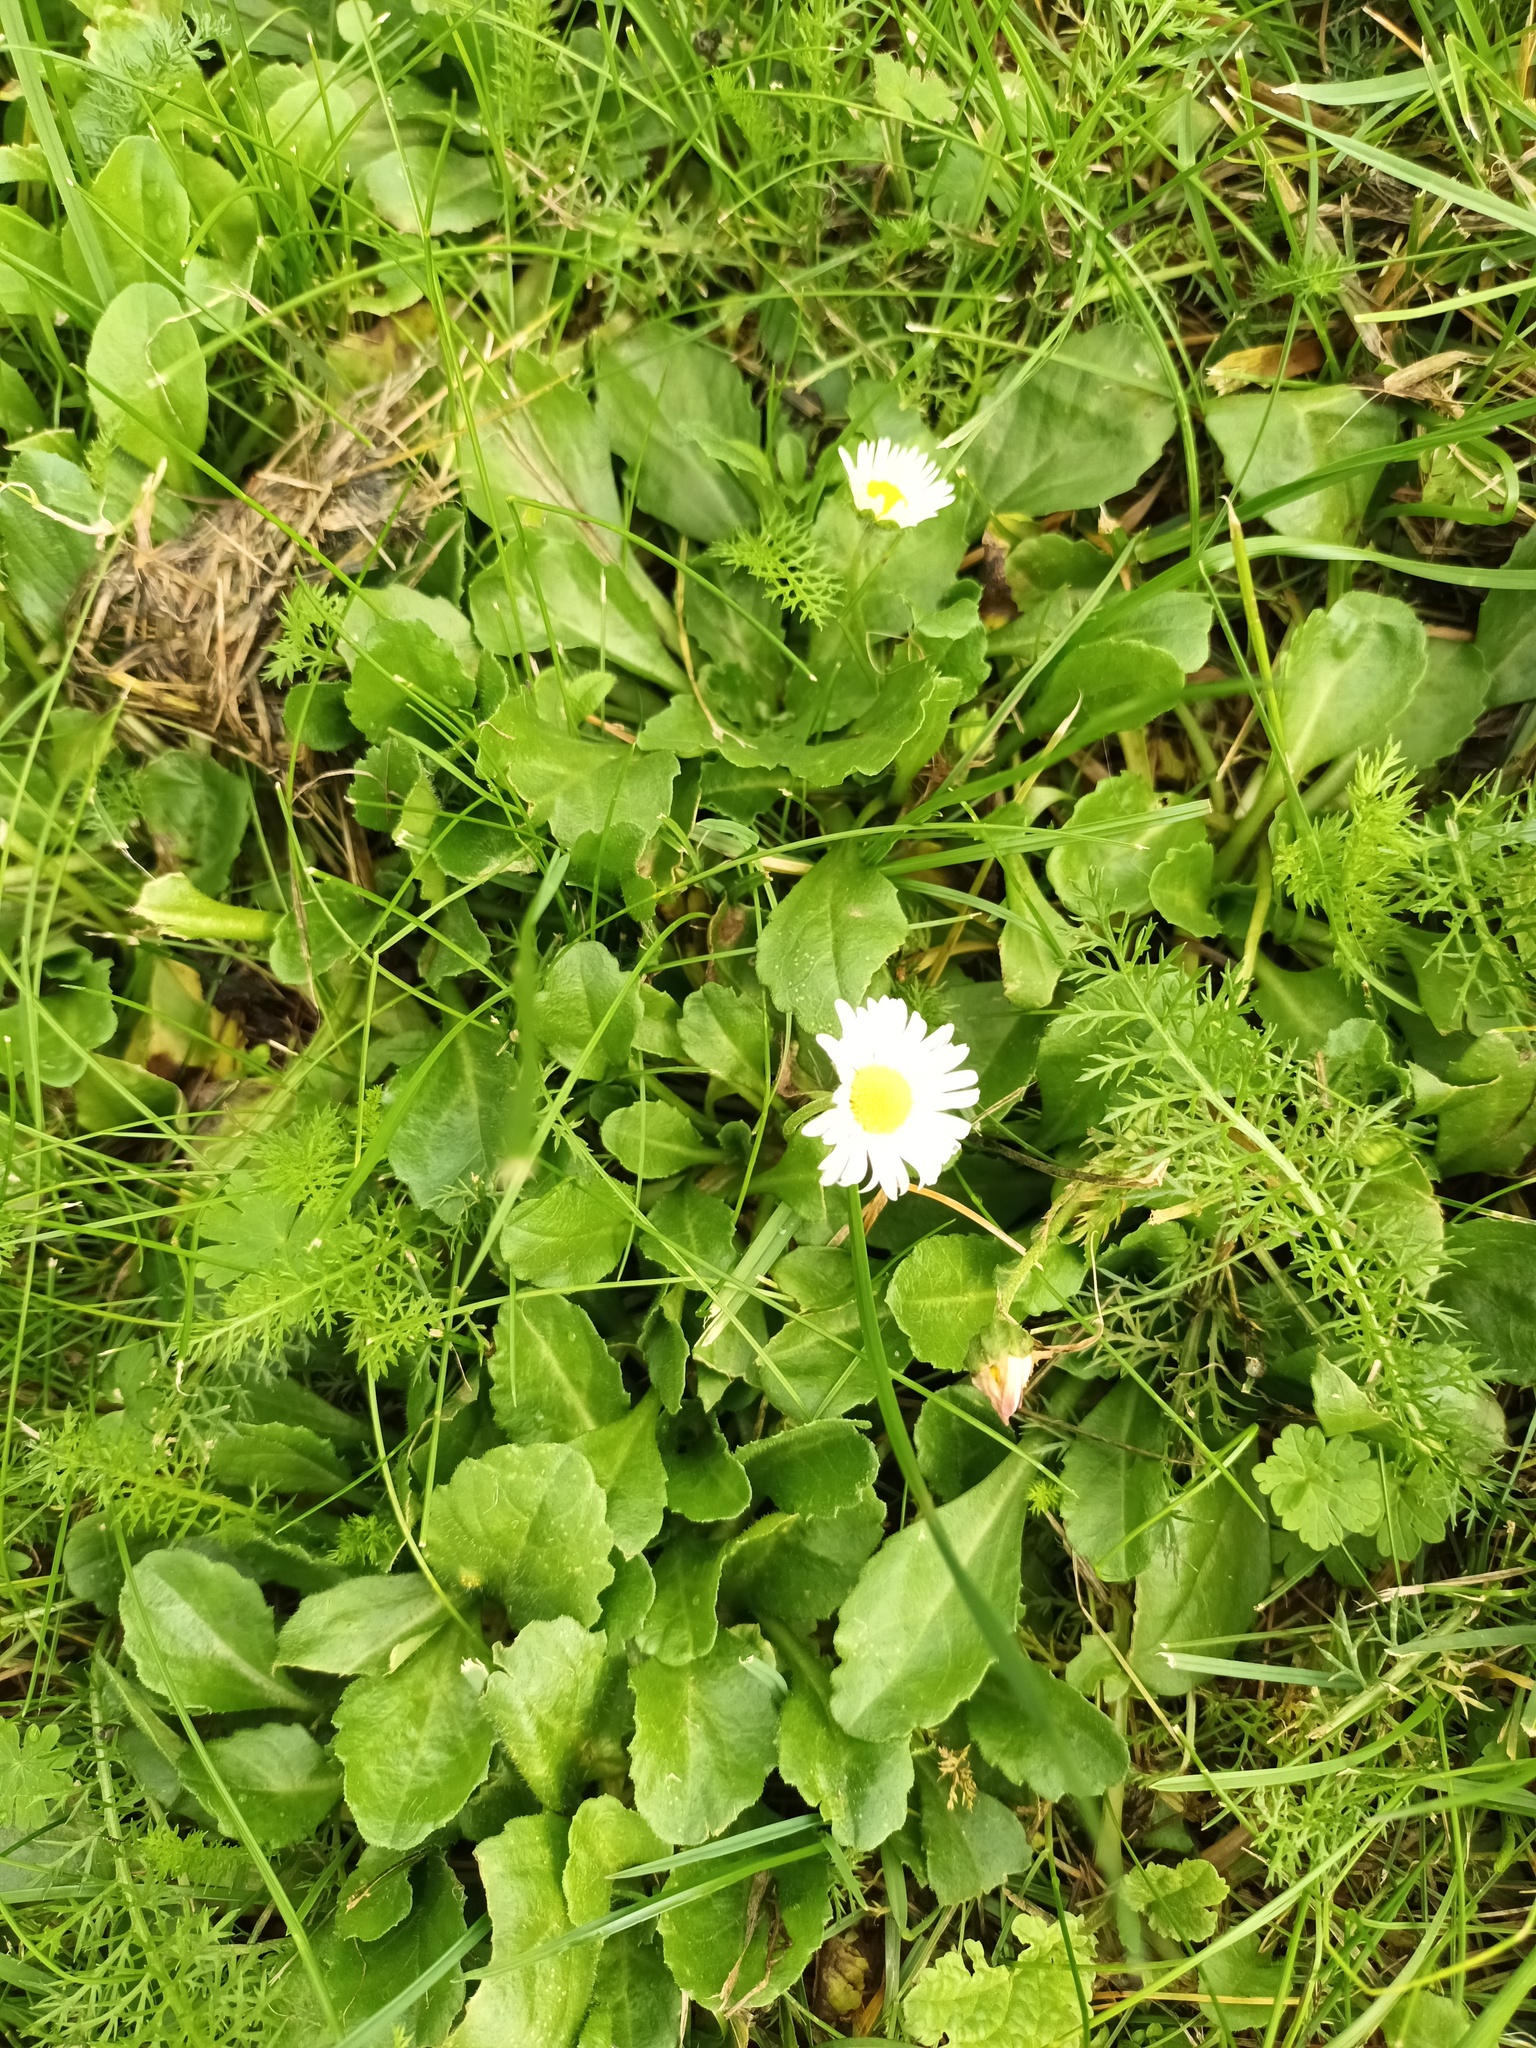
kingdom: Plantae
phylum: Tracheophyta
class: Magnoliopsida
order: Asterales
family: Asteraceae
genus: Bellis
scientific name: Bellis perennis
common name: Lawndaisy
